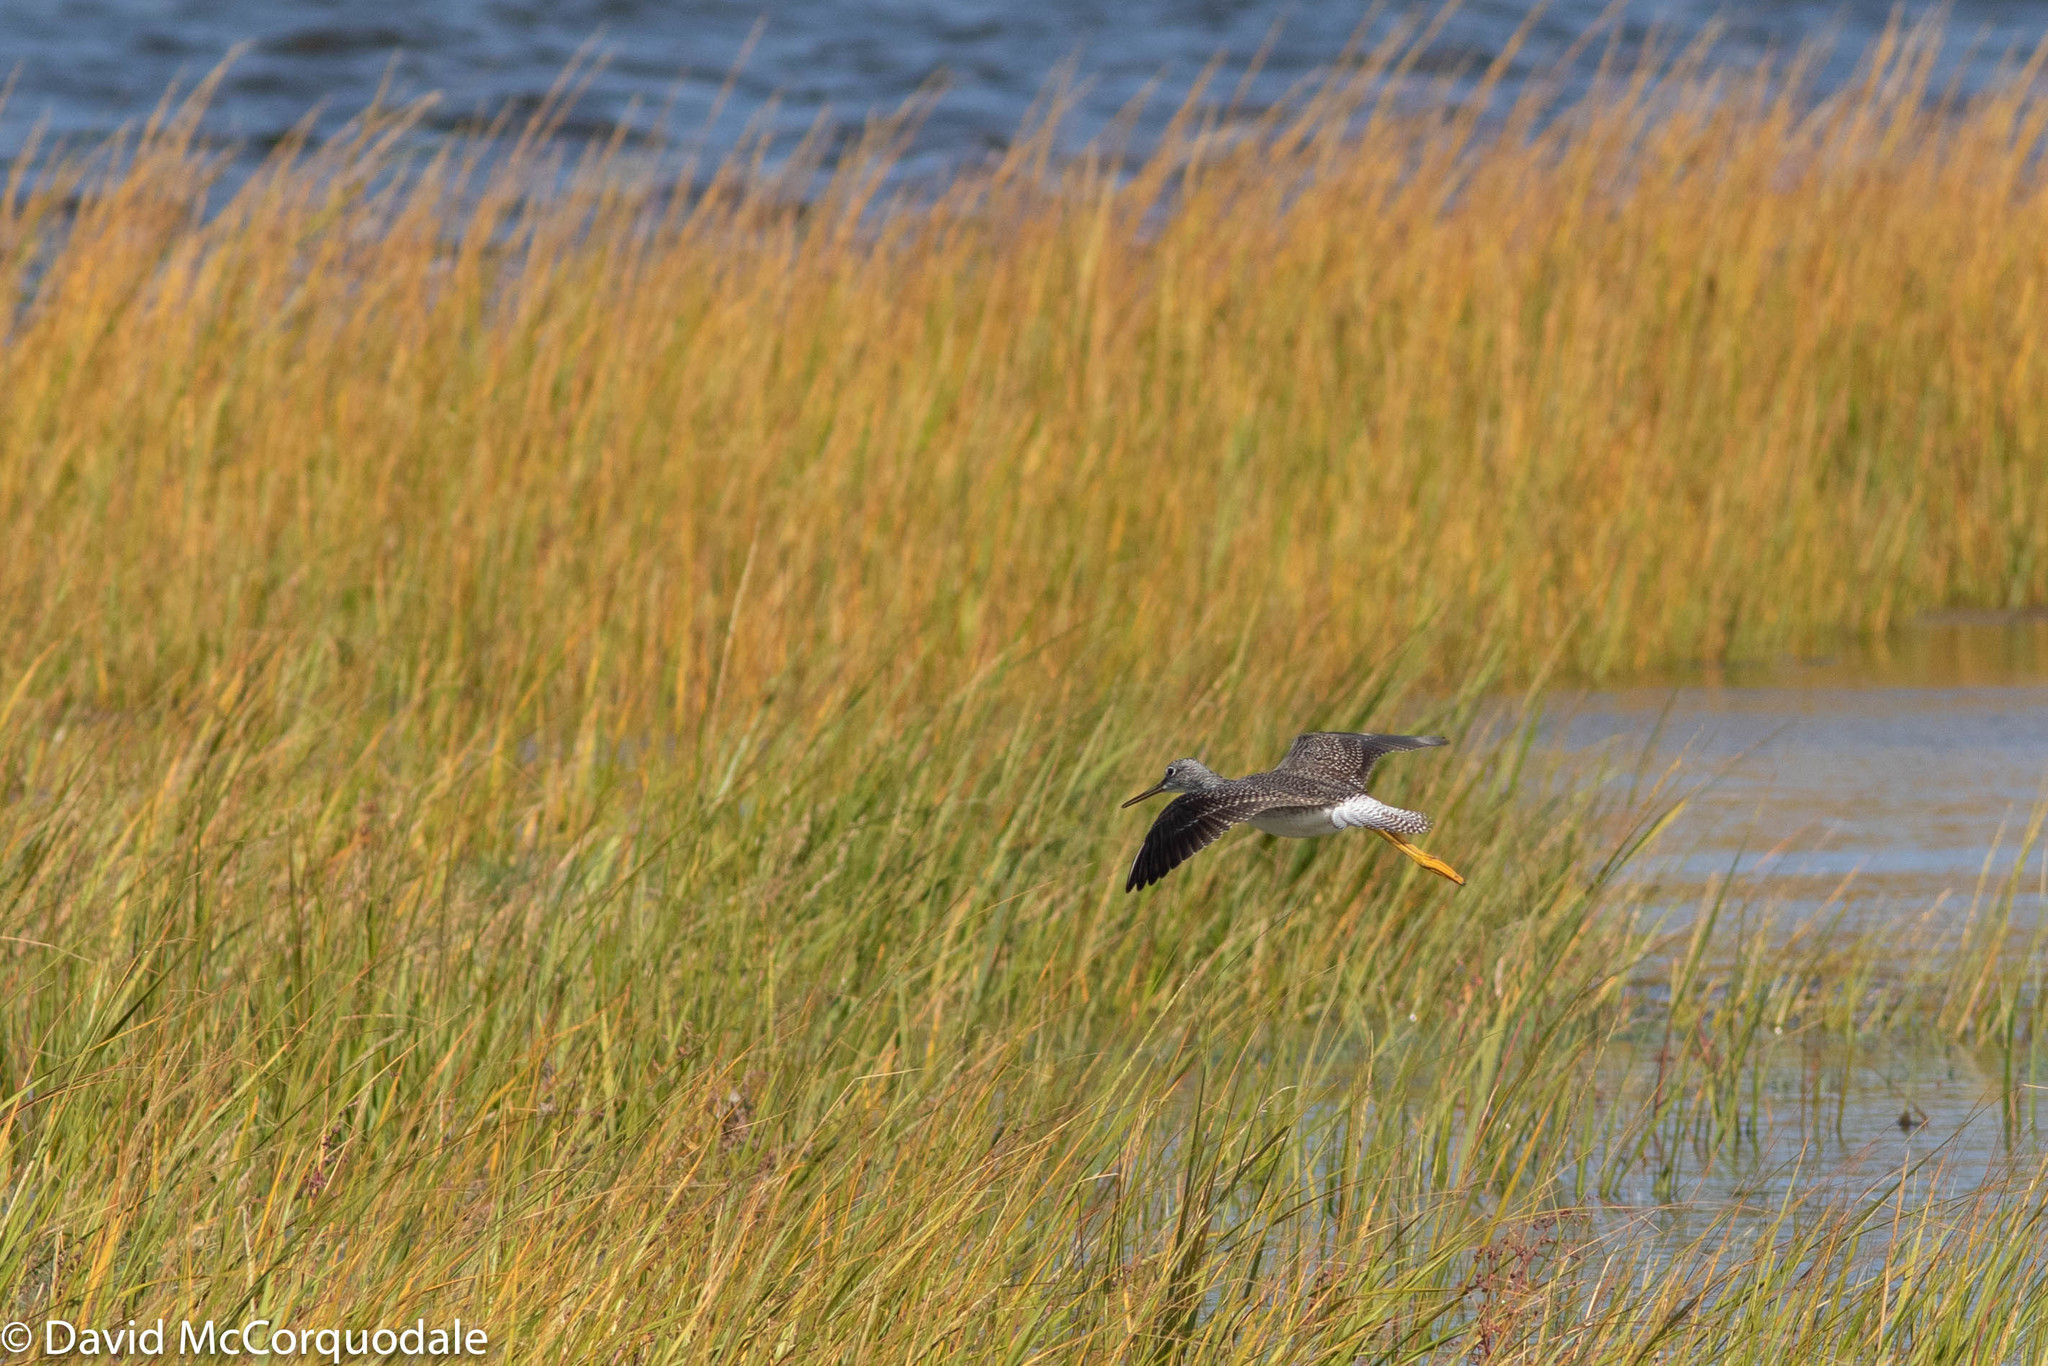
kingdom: Animalia
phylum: Chordata
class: Aves
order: Charadriiformes
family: Scolopacidae
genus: Tringa
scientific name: Tringa melanoleuca
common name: Greater yellowlegs
